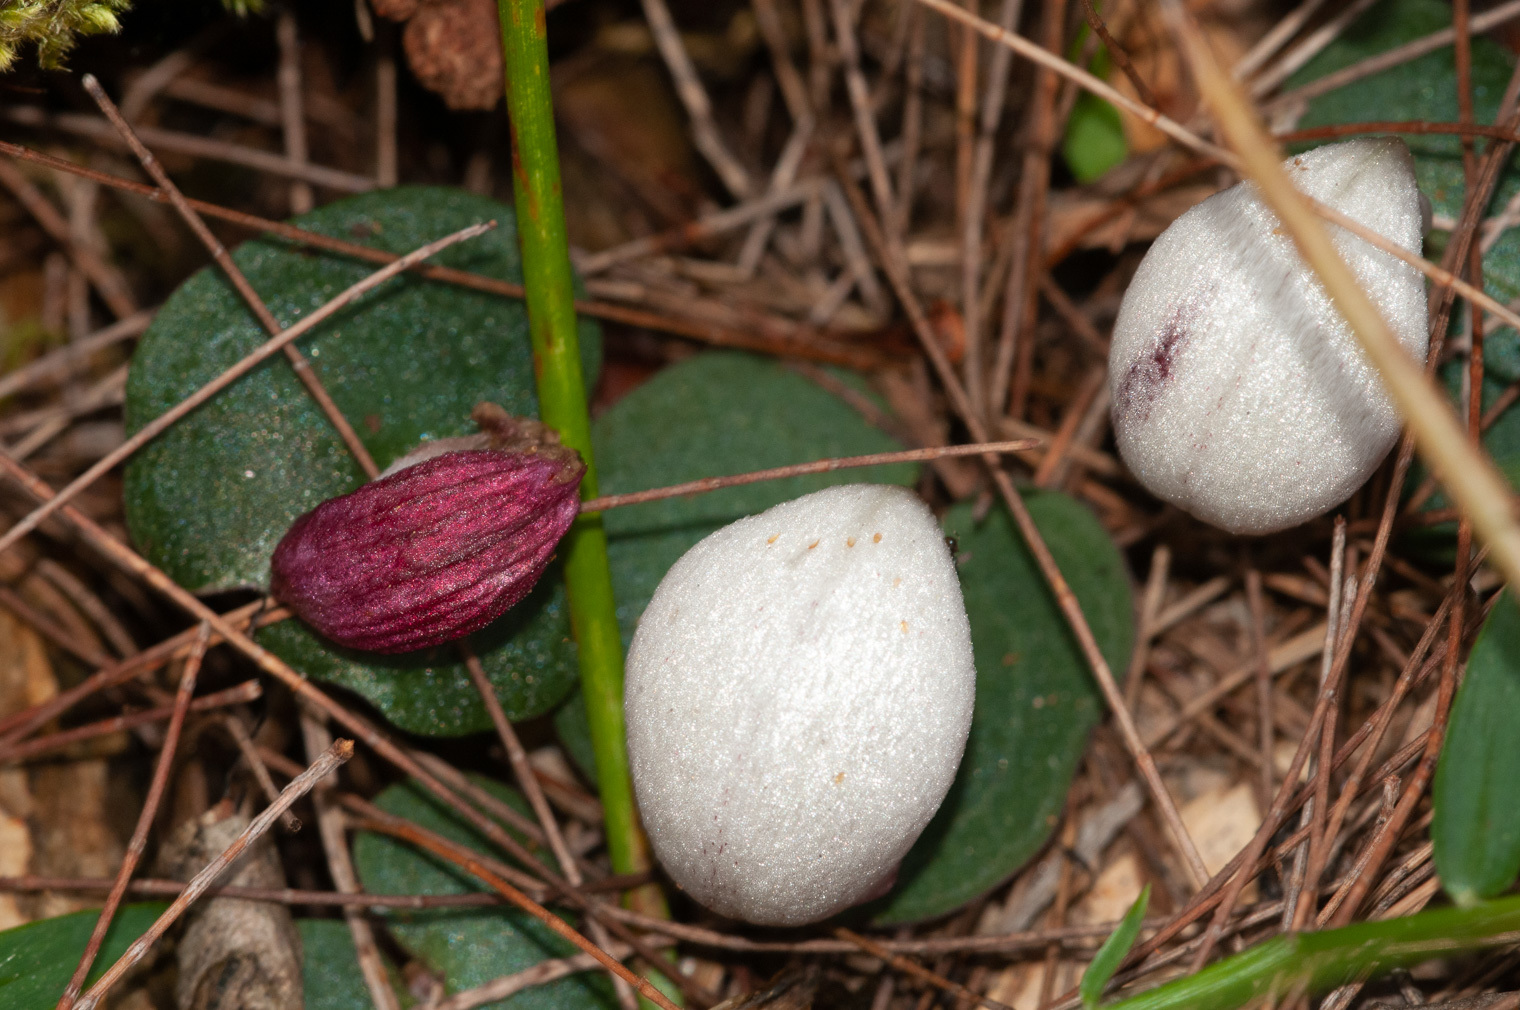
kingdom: Plantae
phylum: Tracheophyta
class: Liliopsida
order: Asparagales
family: Orchidaceae
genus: Corybas
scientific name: Corybas barbarae
